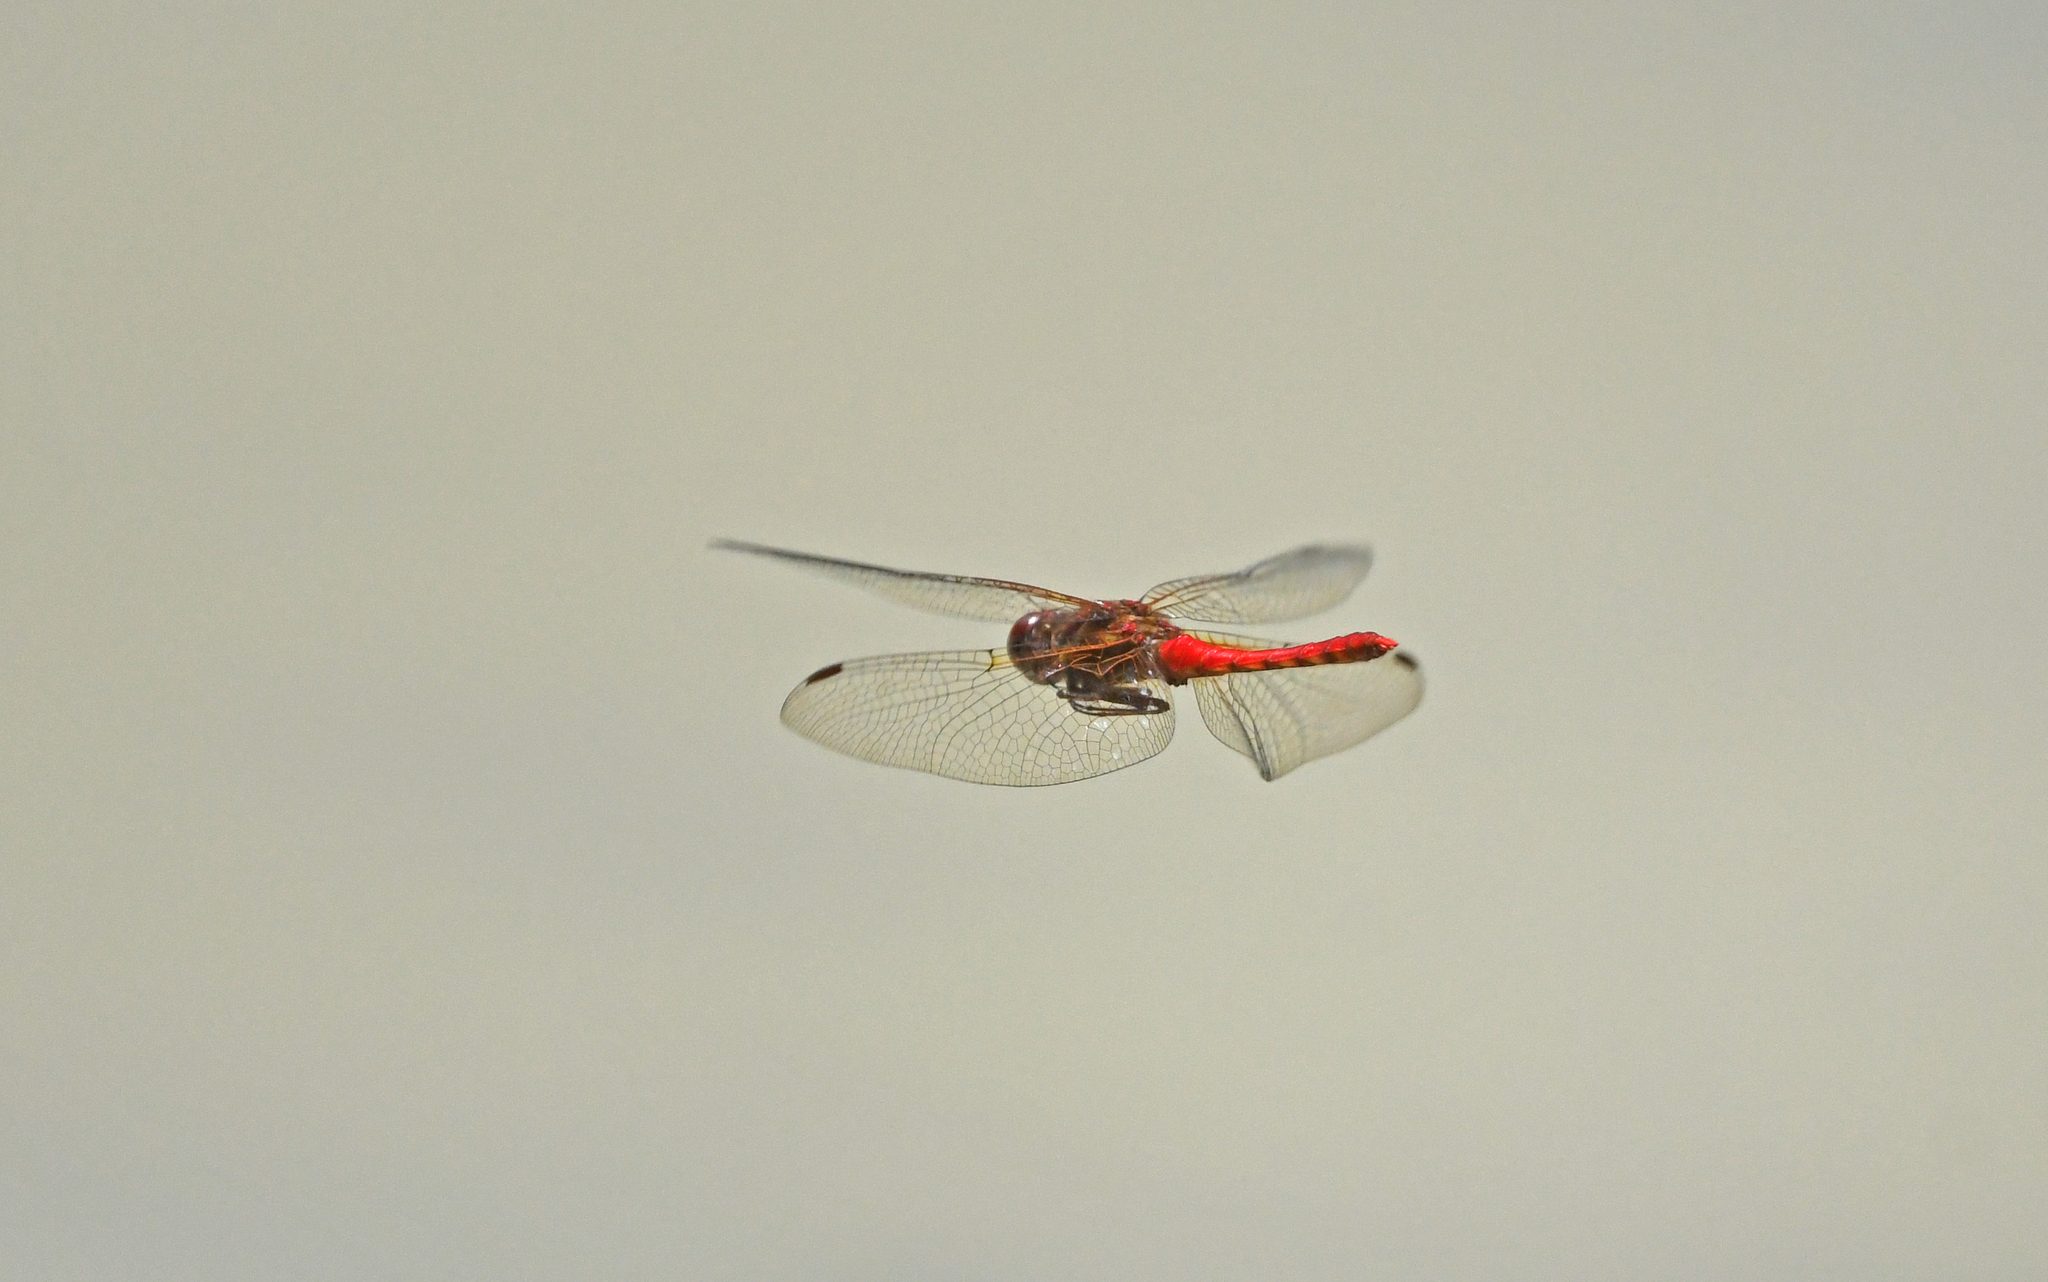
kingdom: Animalia
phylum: Arthropoda
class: Insecta
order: Odonata
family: Libellulidae
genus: Sympetrum
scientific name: Sympetrum gilvum
